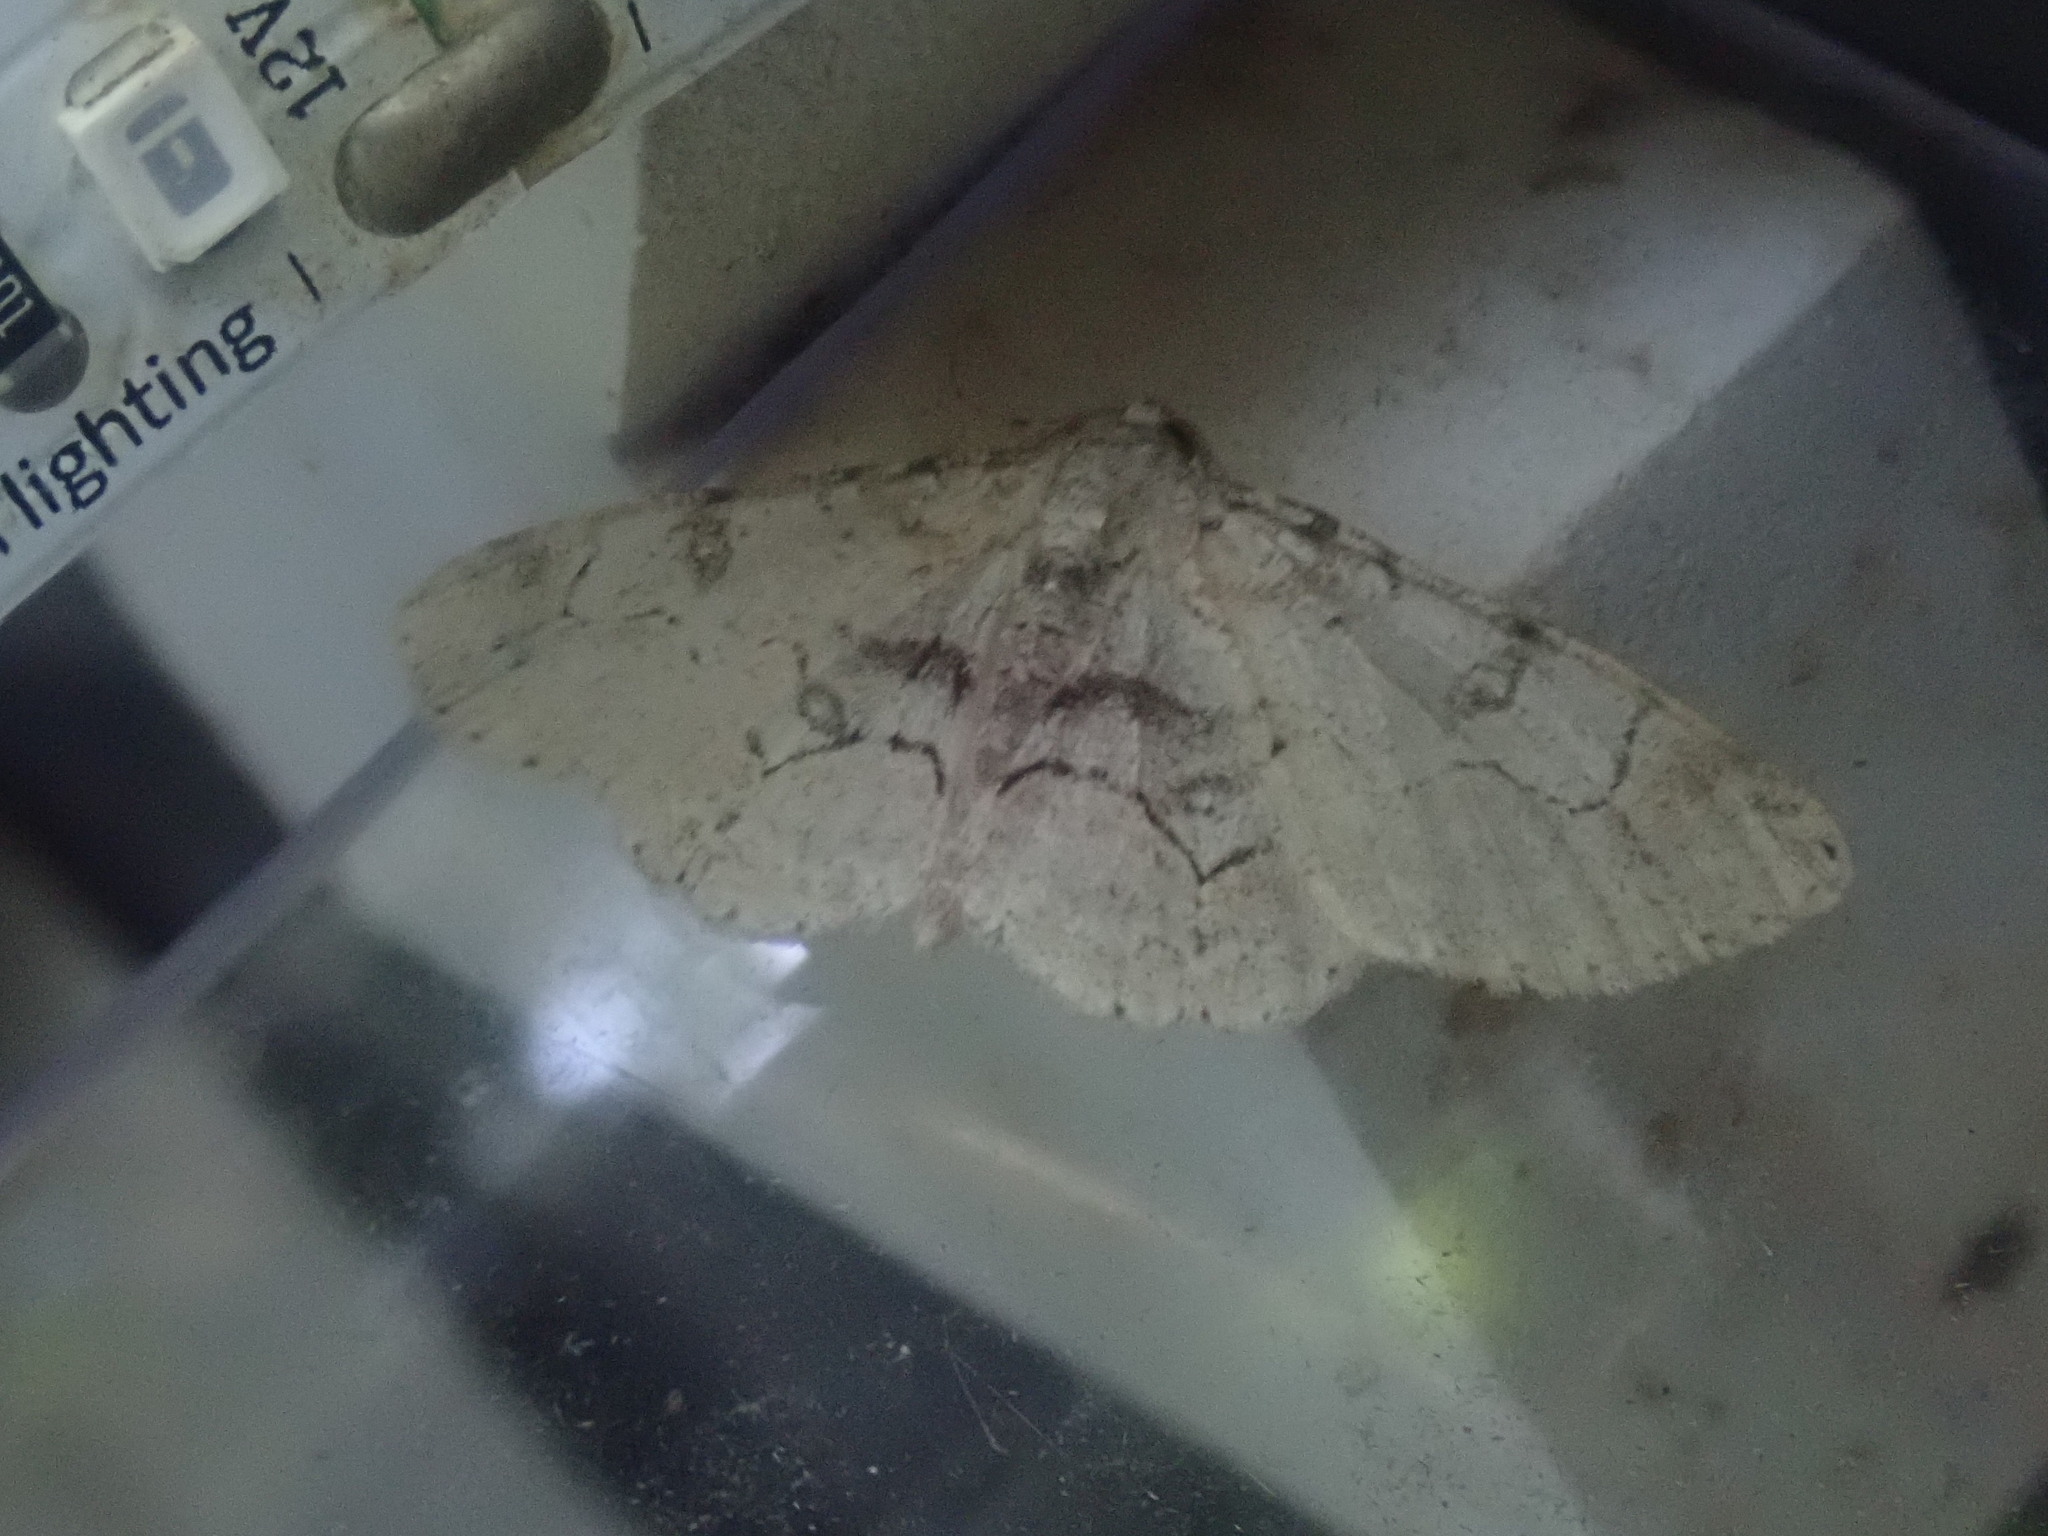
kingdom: Animalia
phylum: Arthropoda
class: Insecta
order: Lepidoptera
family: Geometridae
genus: Iridopsis
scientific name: Iridopsis larvaria
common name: Bent-line gray
